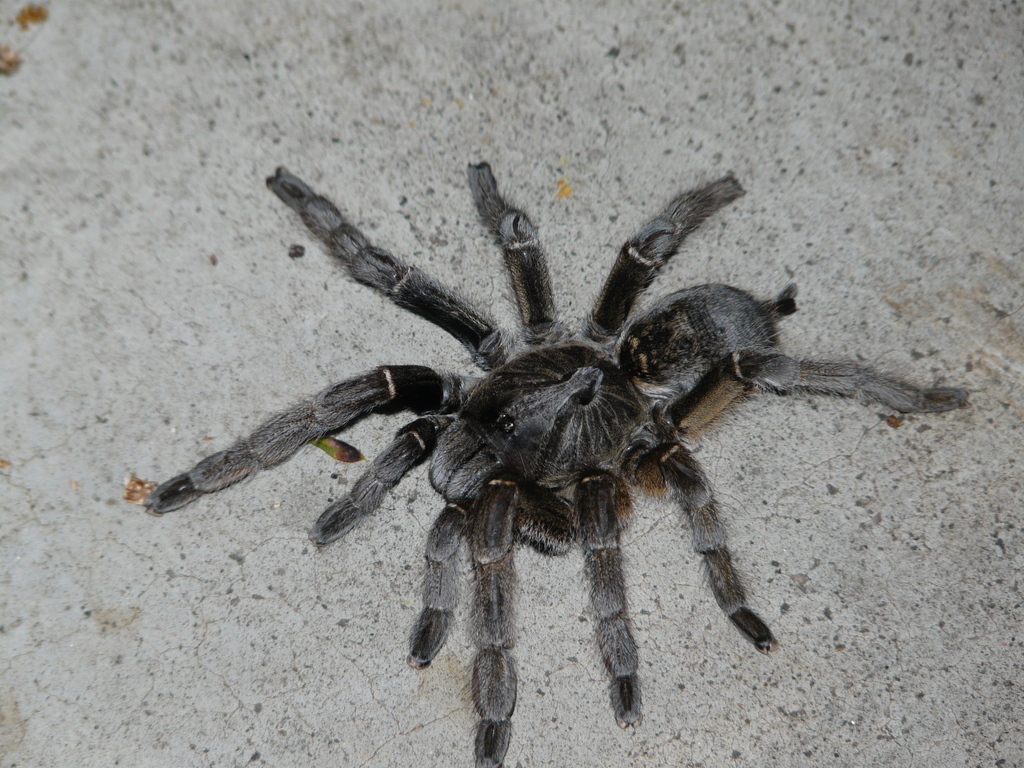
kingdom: Animalia
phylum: Arthropoda
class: Arachnida
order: Araneae
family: Theraphosidae
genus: Ceratogyrus
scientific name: Ceratogyrus dolichocephalus
